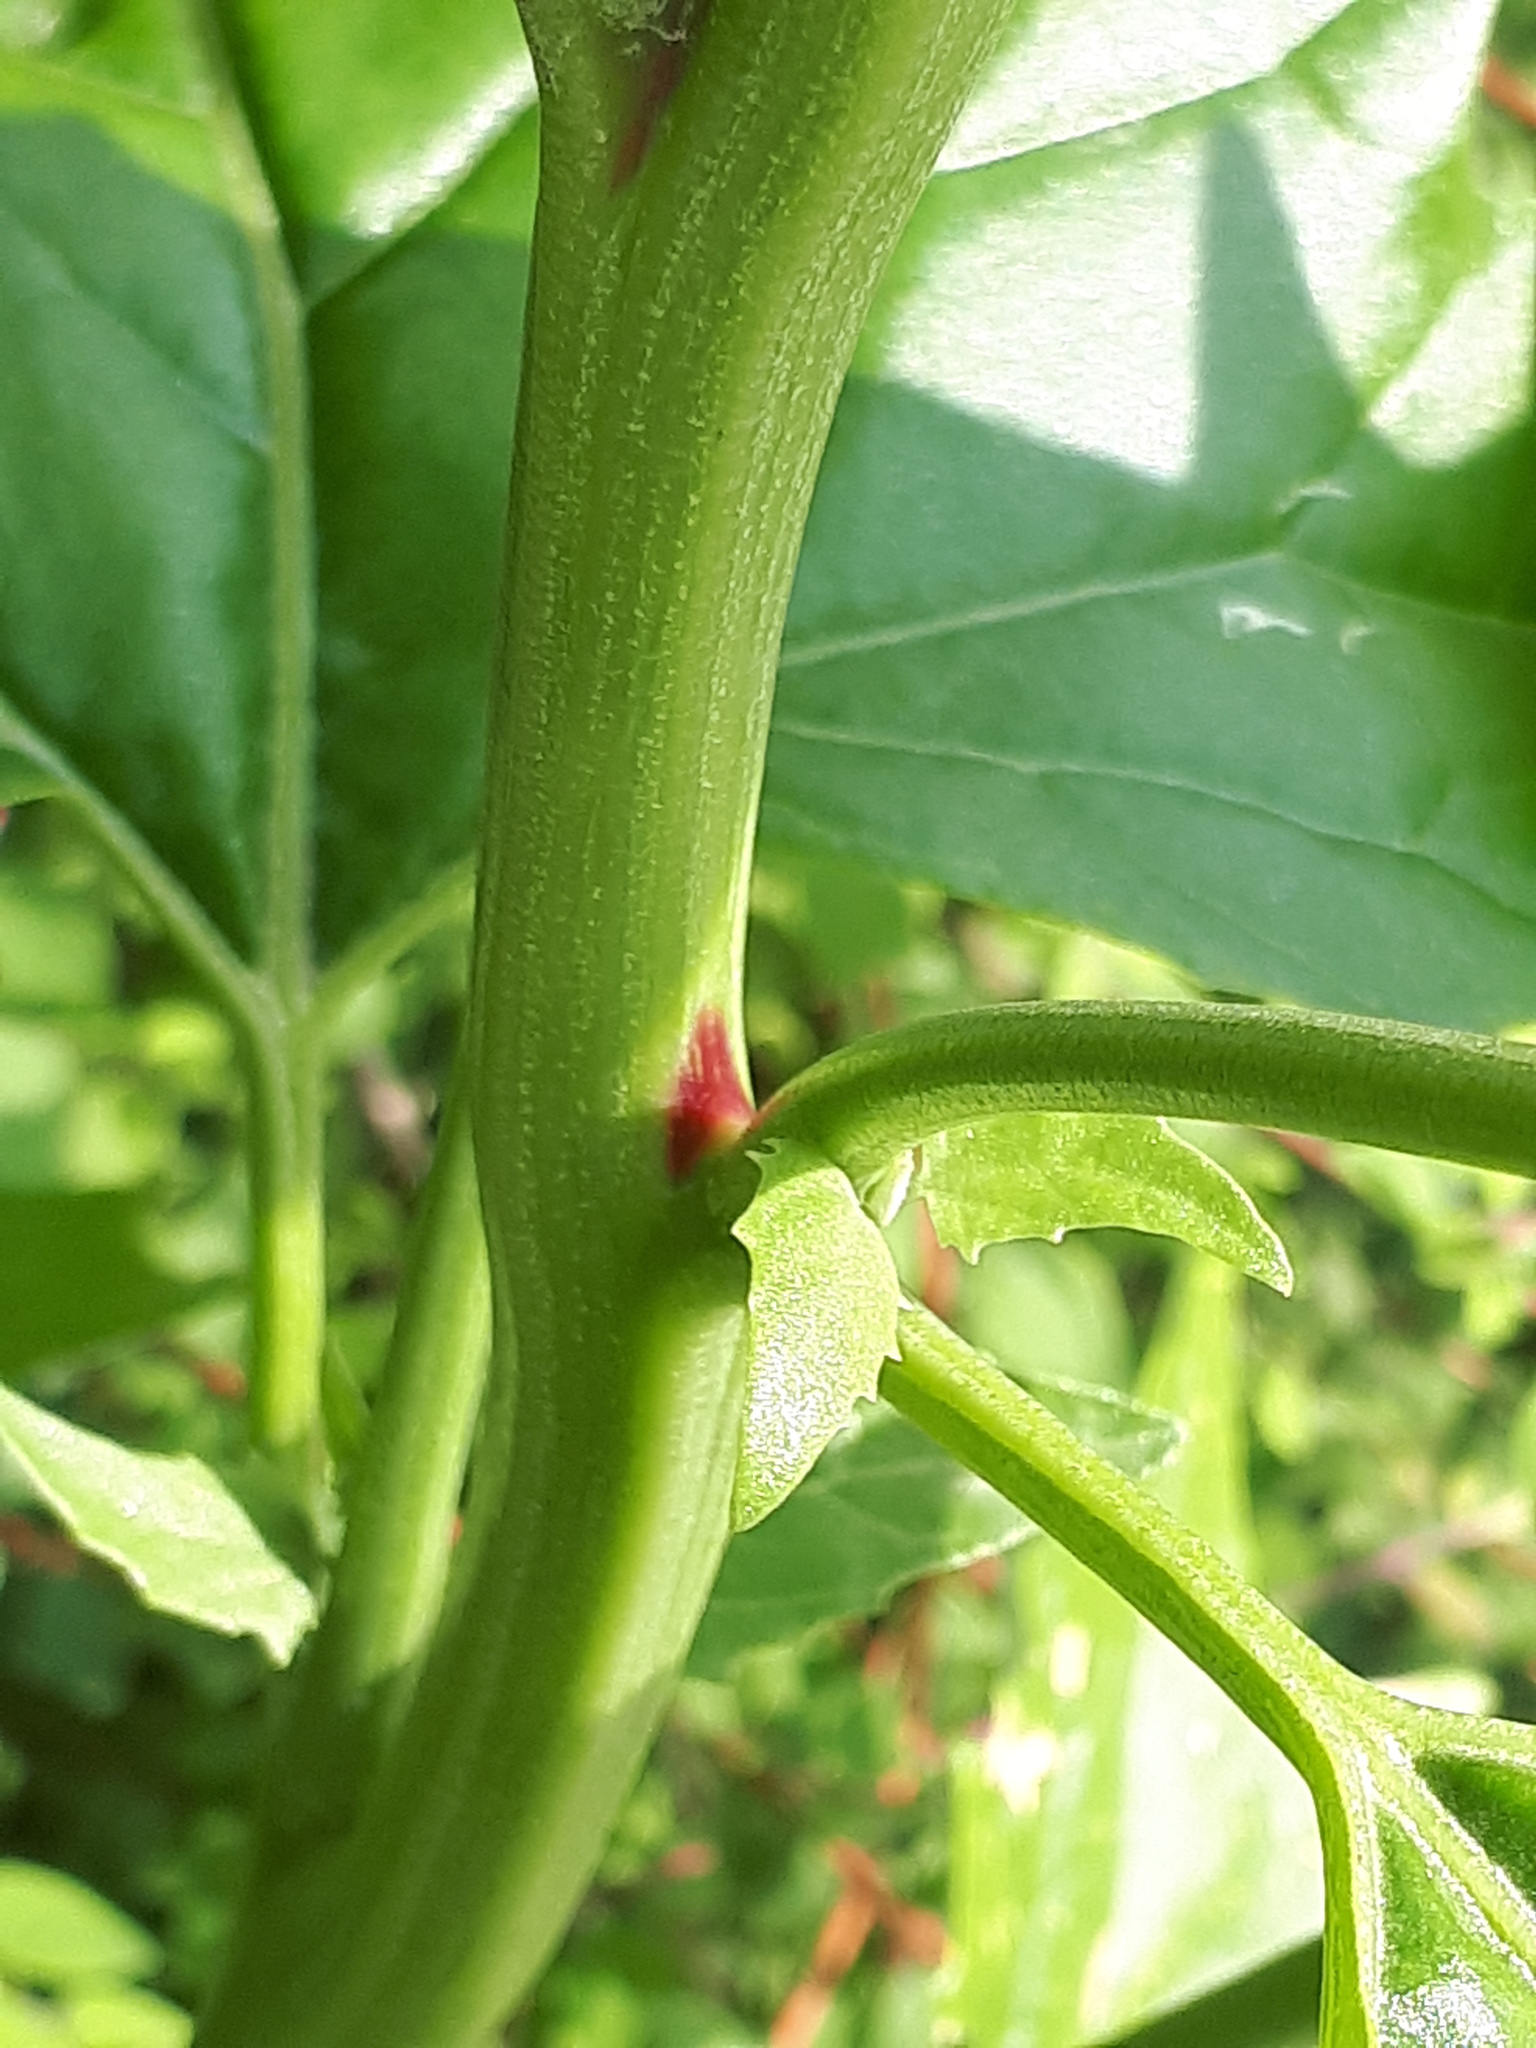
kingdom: Plantae
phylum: Tracheophyta
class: Magnoliopsida
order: Caryophyllales
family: Amaranthaceae
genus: Atriplex
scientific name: Atriplex sagittata
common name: Purple orache
